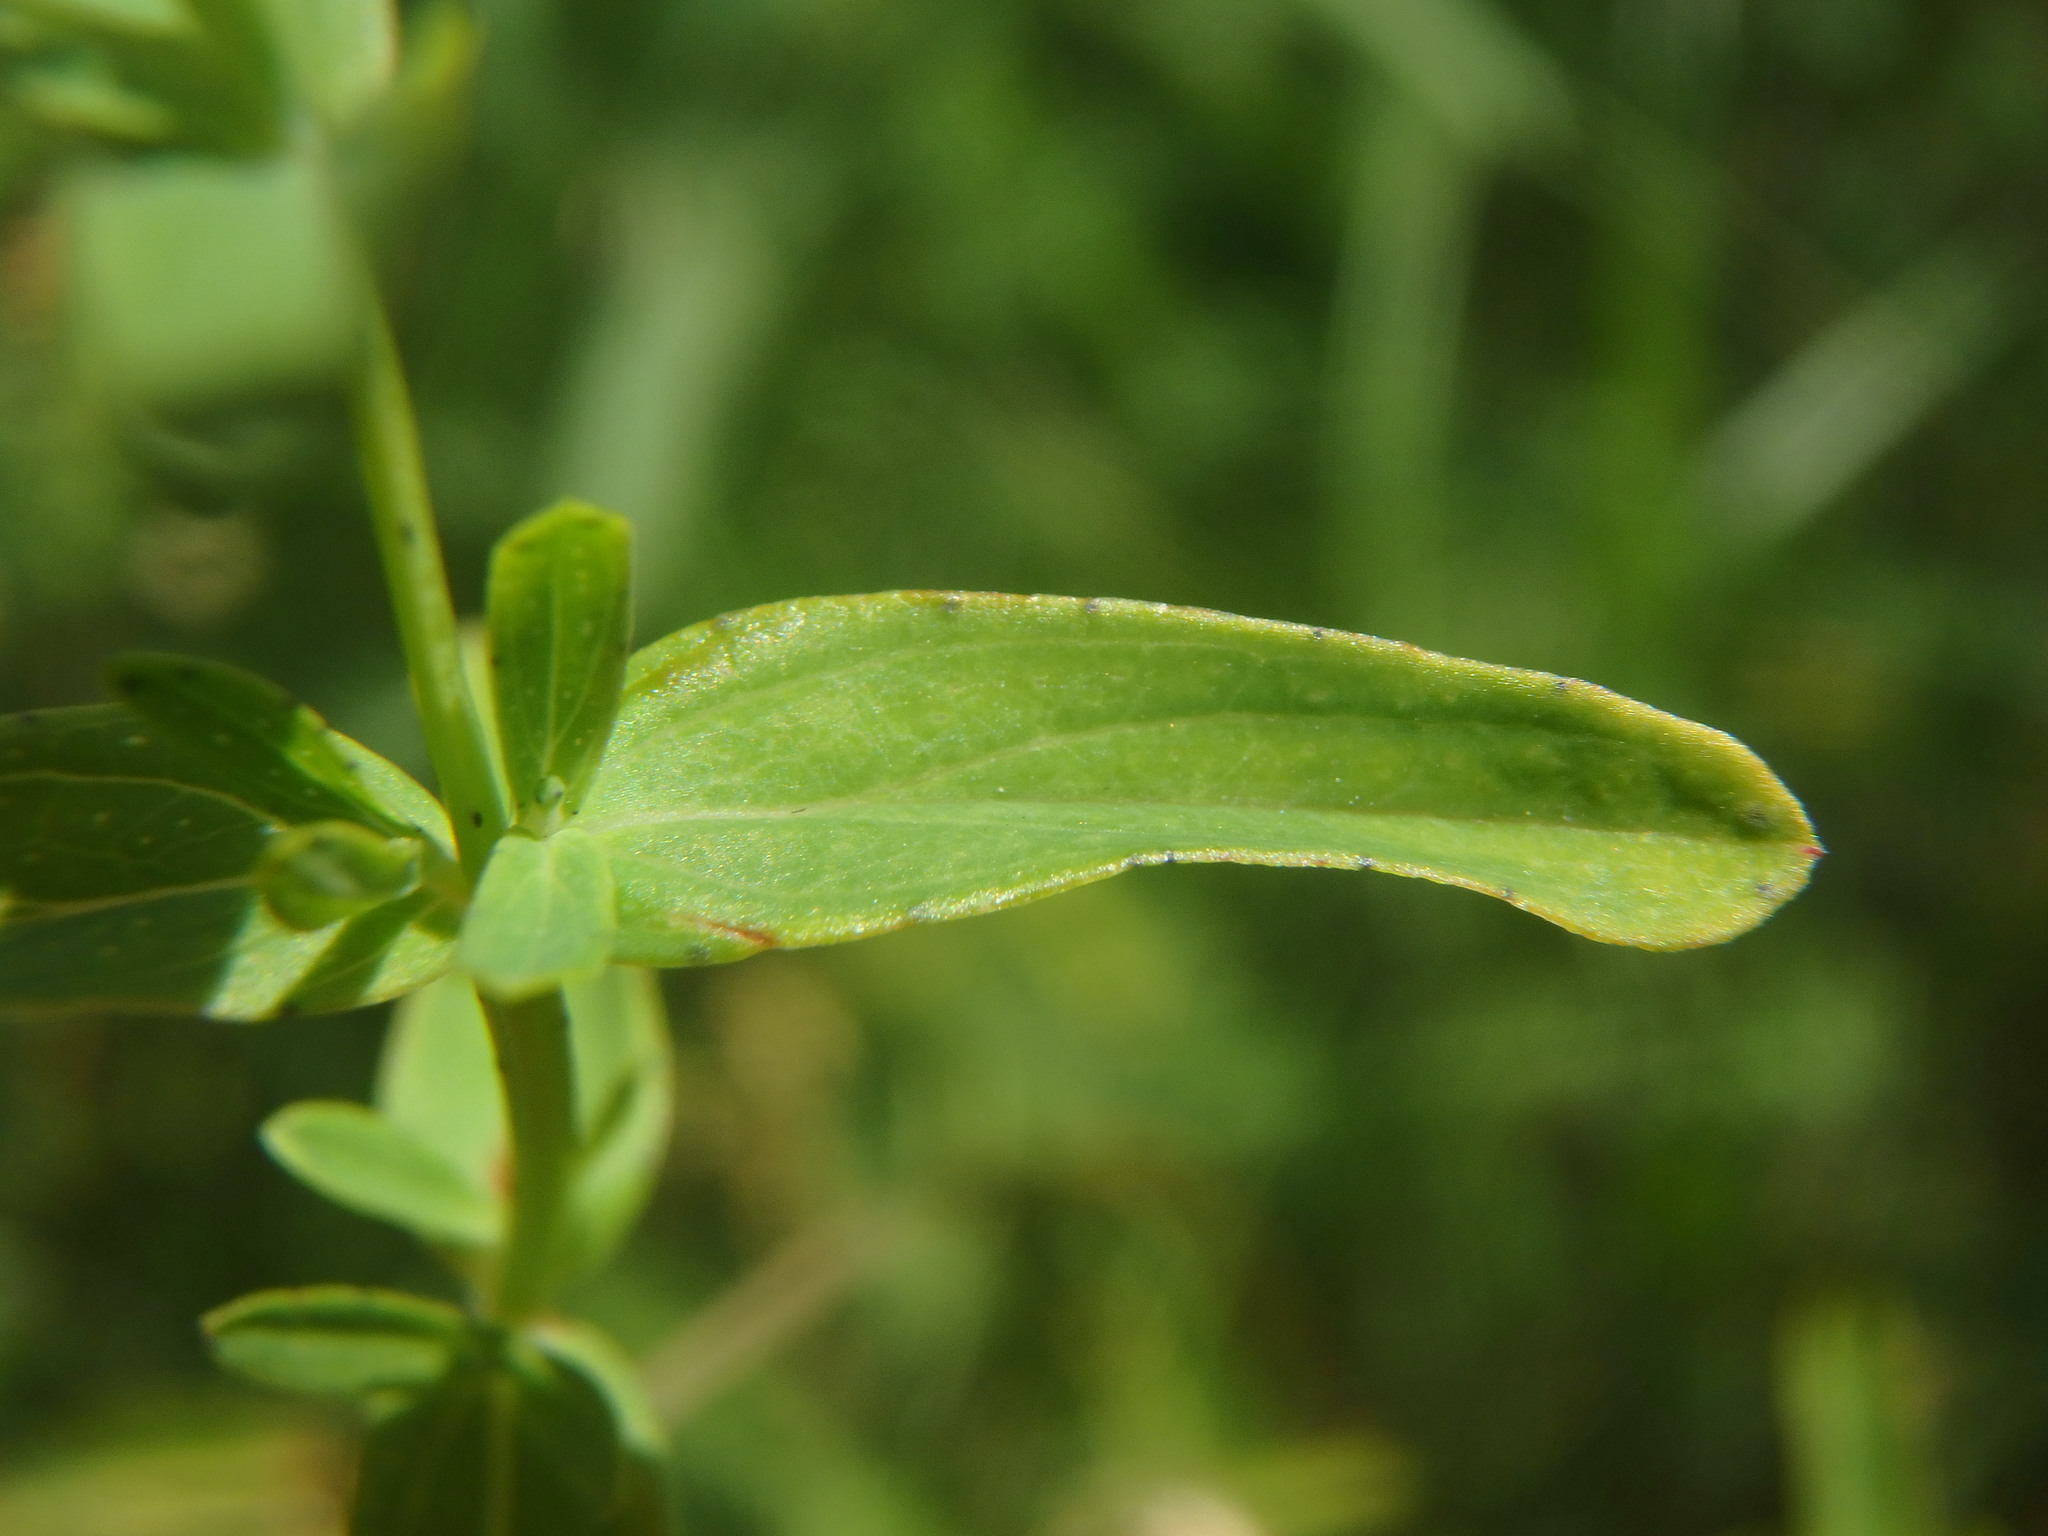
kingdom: Plantae
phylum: Tracheophyta
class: Magnoliopsida
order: Malpighiales
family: Hypericaceae
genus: Hypericum
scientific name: Hypericum perforatum
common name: Common st. johnswort
